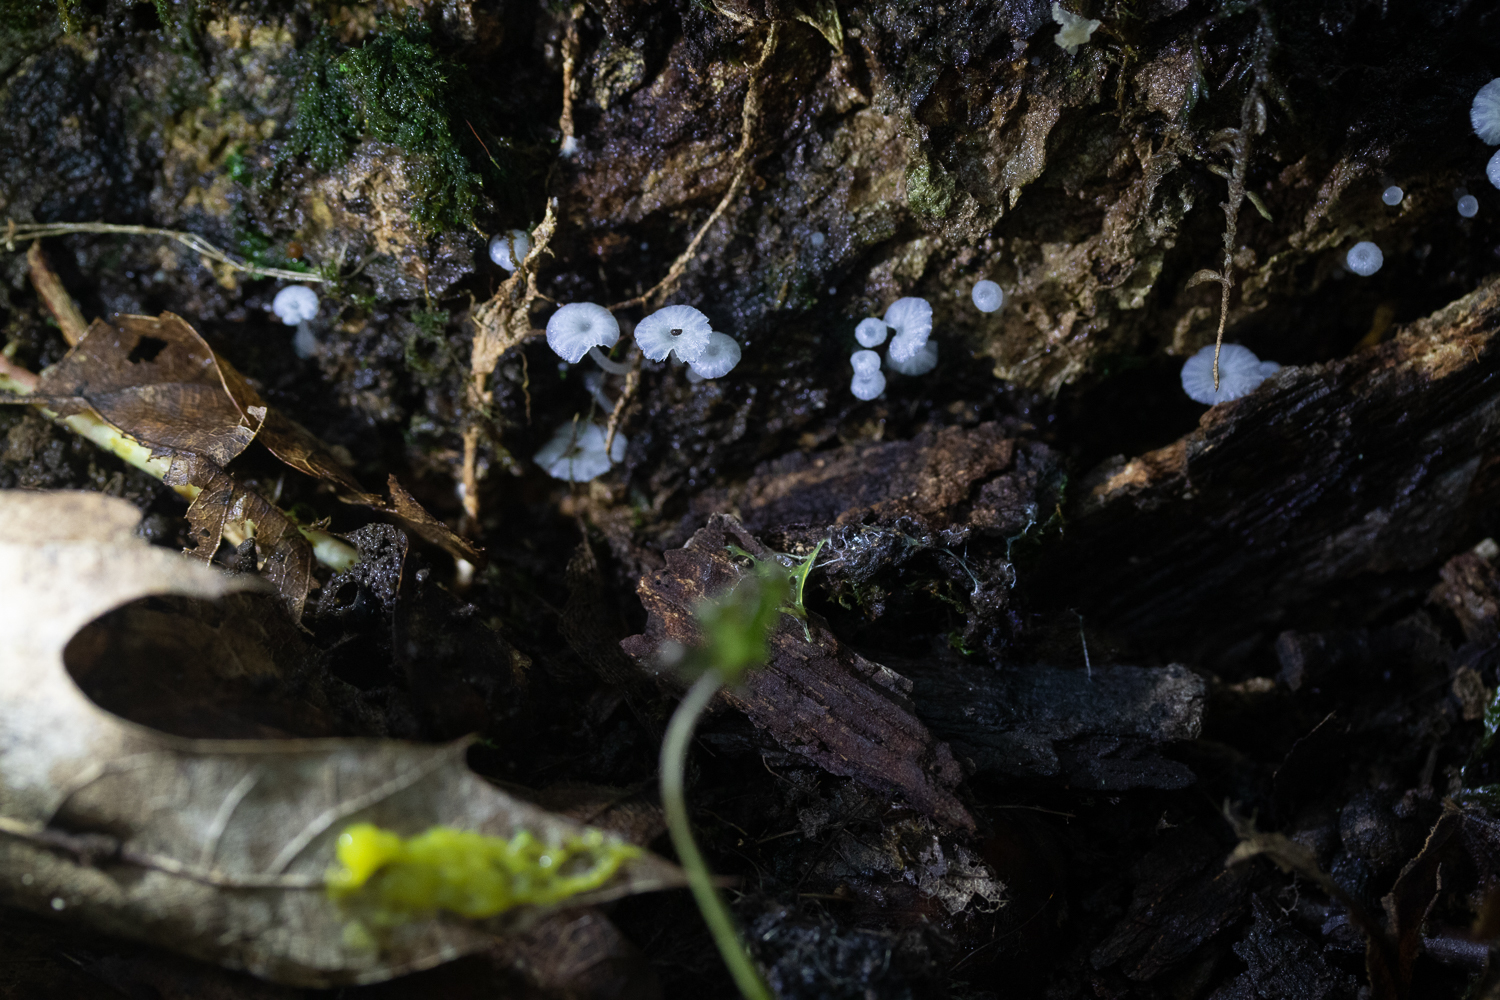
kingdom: Fungi
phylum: Basidiomycota
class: Agaricomycetes
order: Agaricales
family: Tricholomataceae
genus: Delicatula
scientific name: Delicatula integrella
